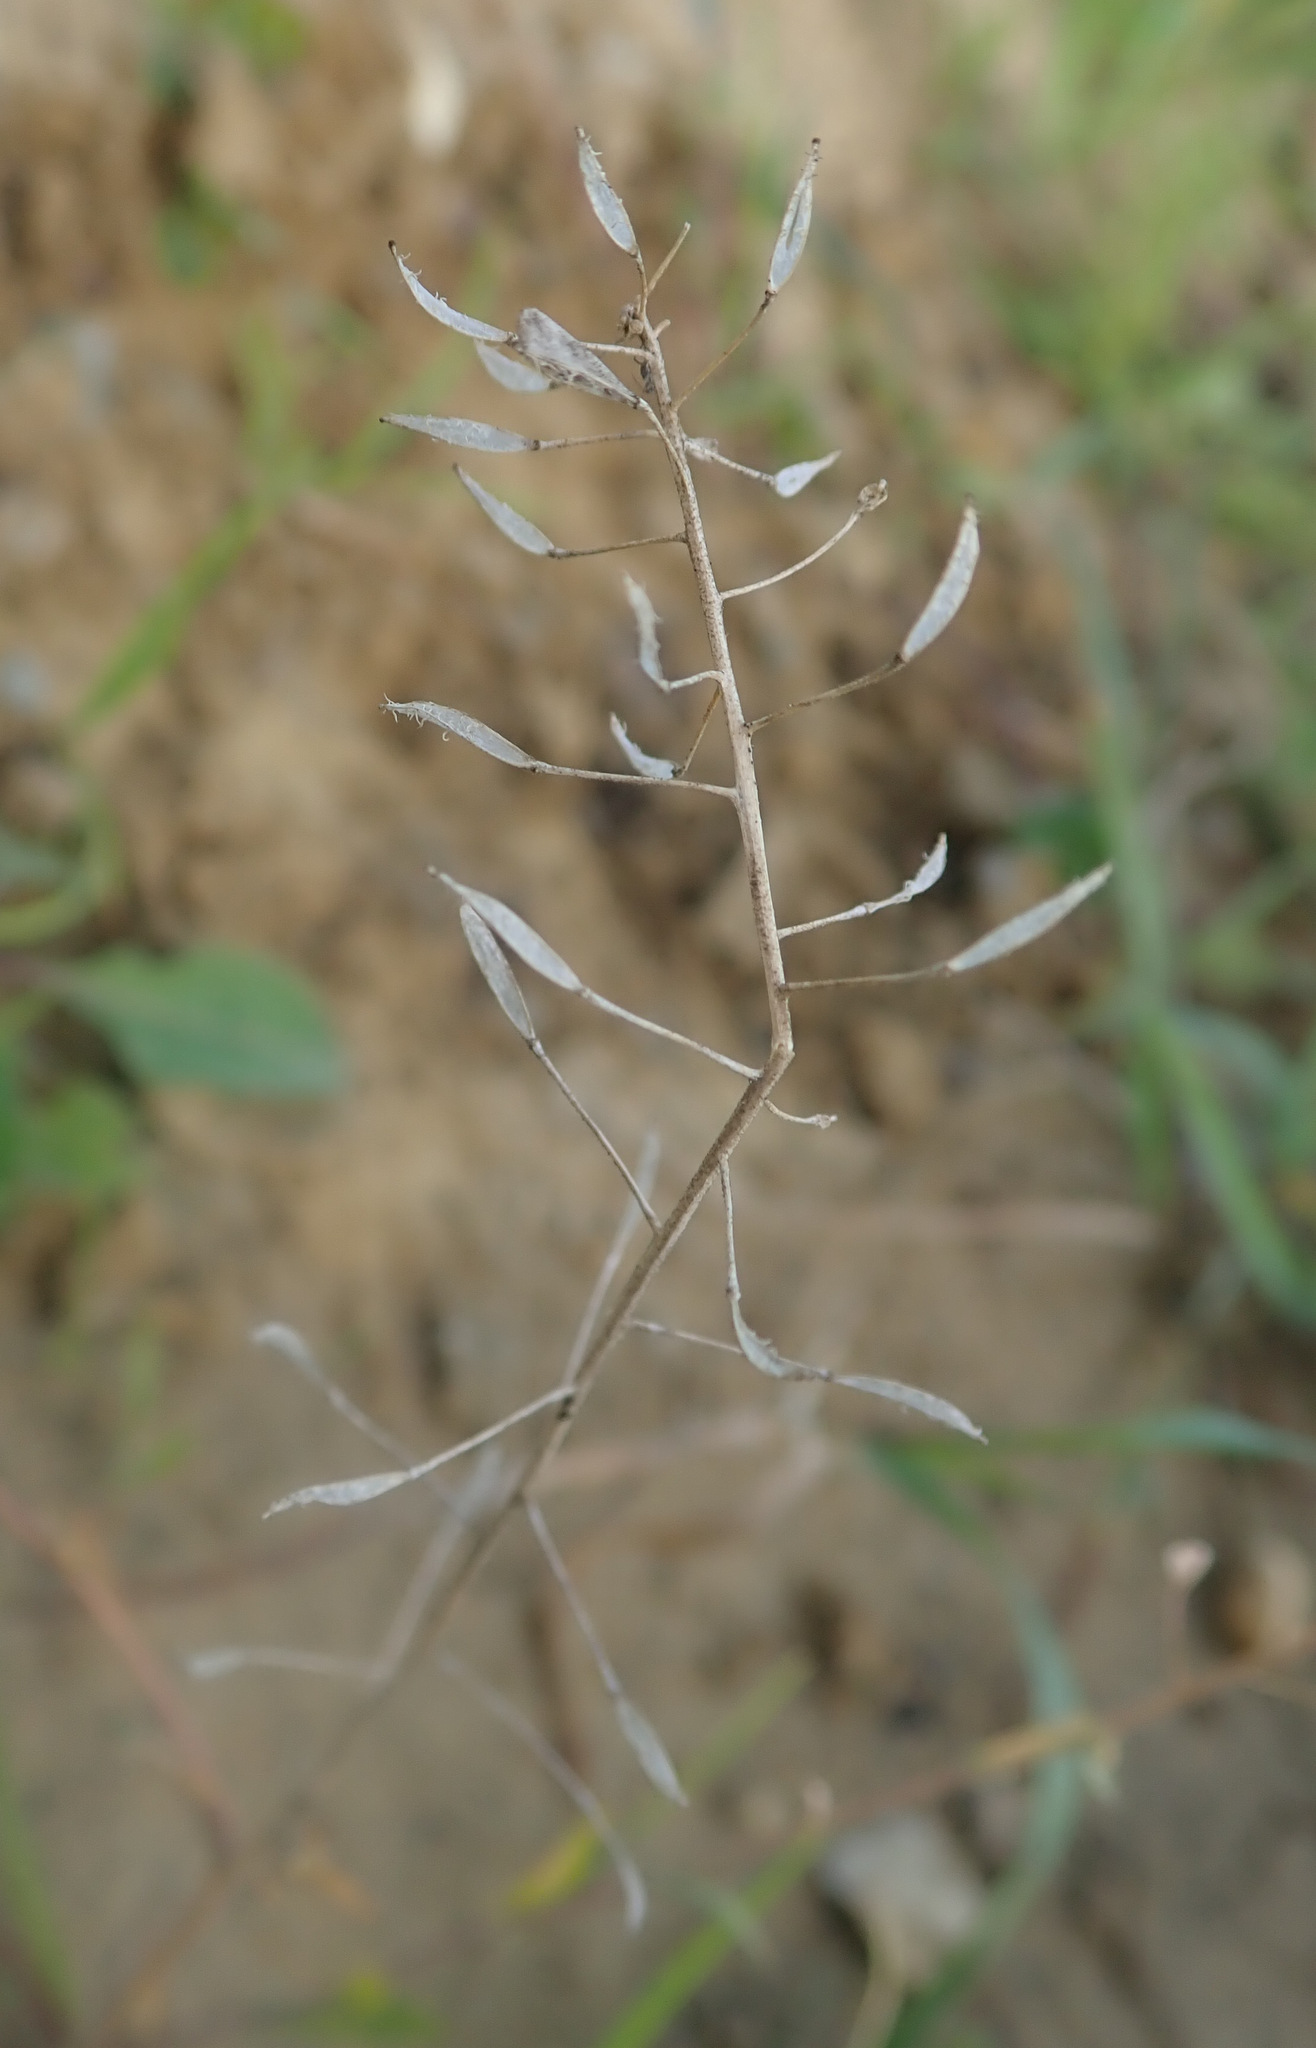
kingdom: Plantae
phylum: Tracheophyta
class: Magnoliopsida
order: Brassicales
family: Brassicaceae
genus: Capsella
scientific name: Capsella bursa-pastoris
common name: Shepherd's purse
